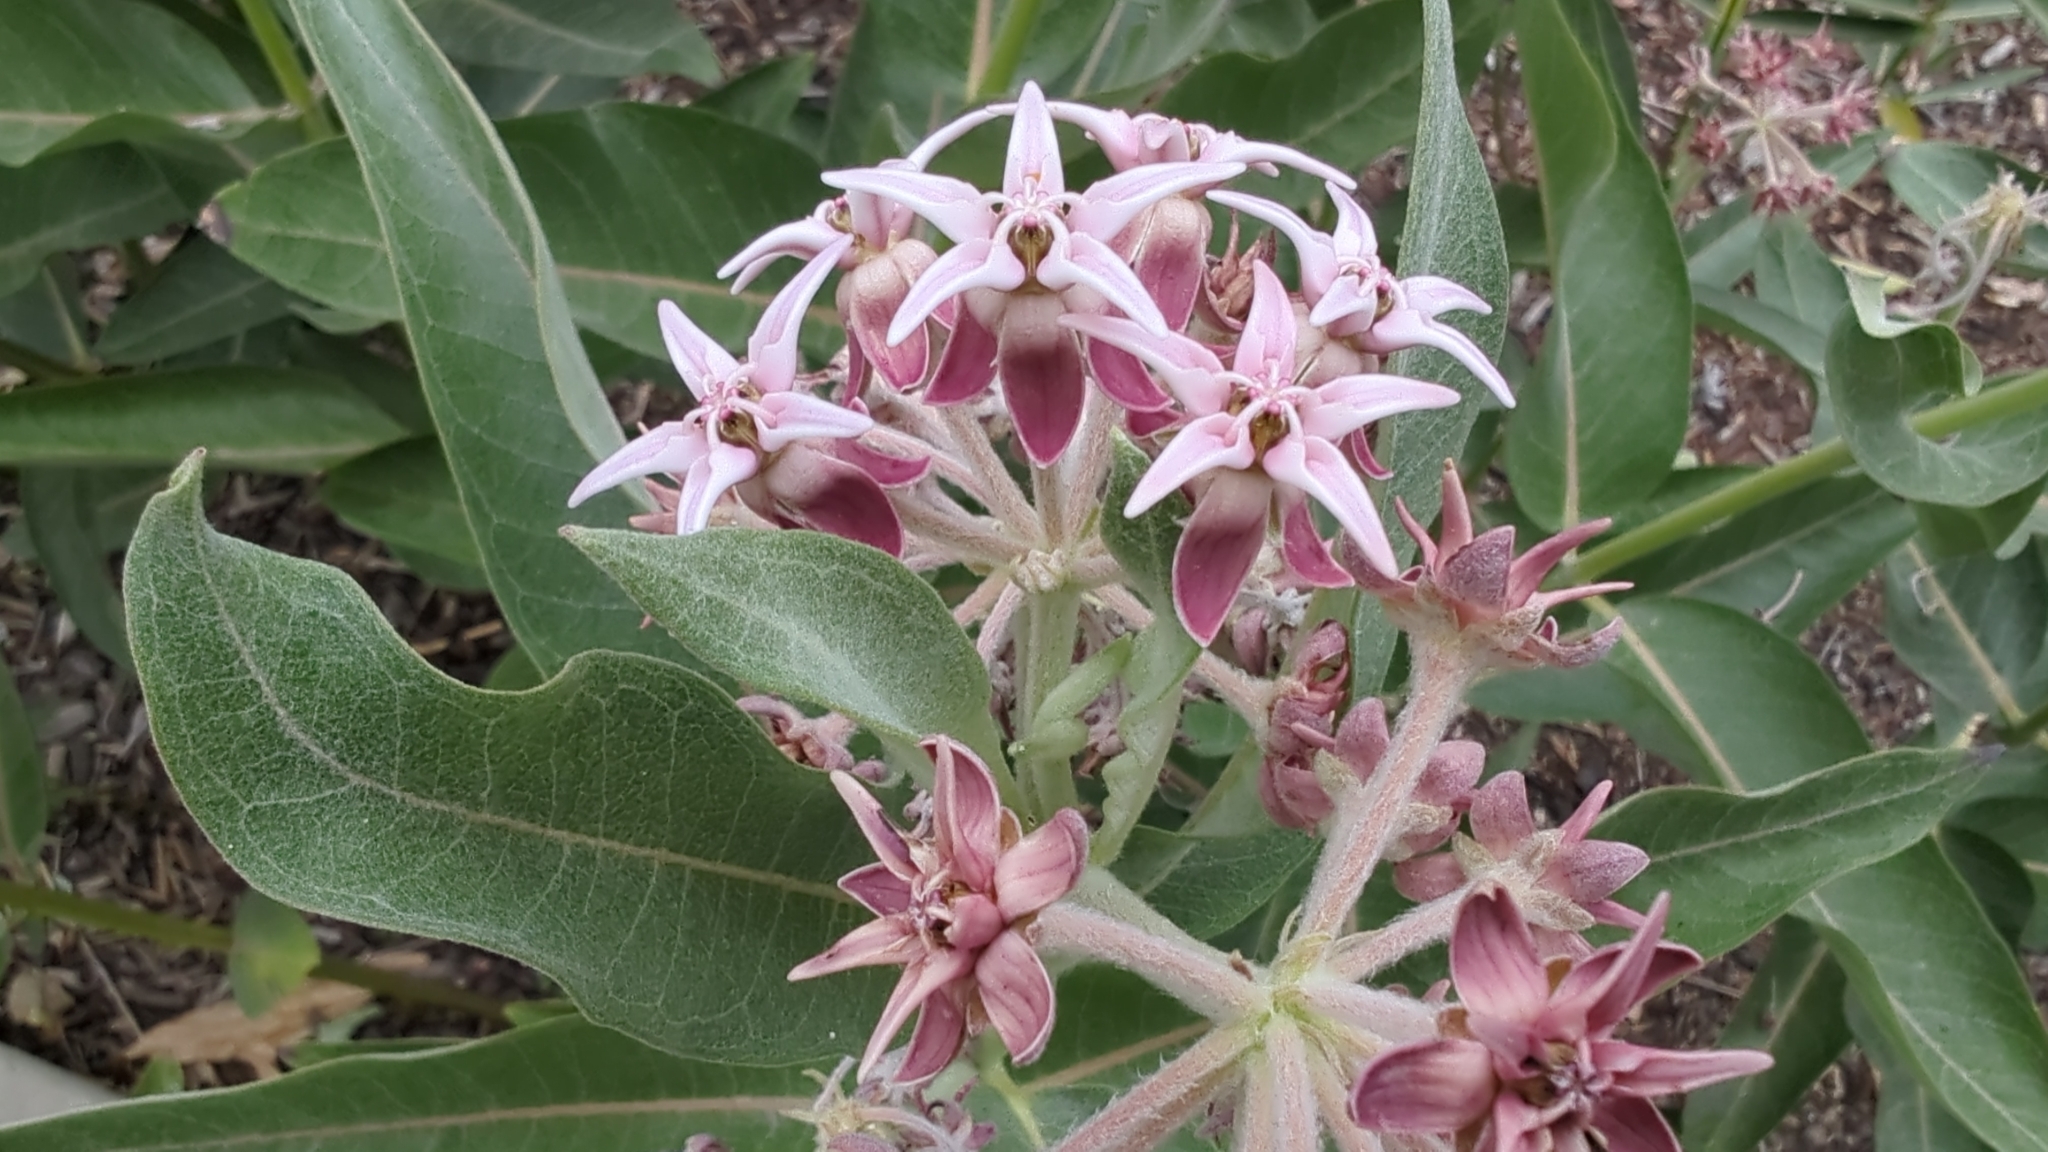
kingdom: Plantae
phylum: Tracheophyta
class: Magnoliopsida
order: Gentianales
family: Apocynaceae
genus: Asclepias
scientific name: Asclepias speciosa
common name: Showy milkweed
